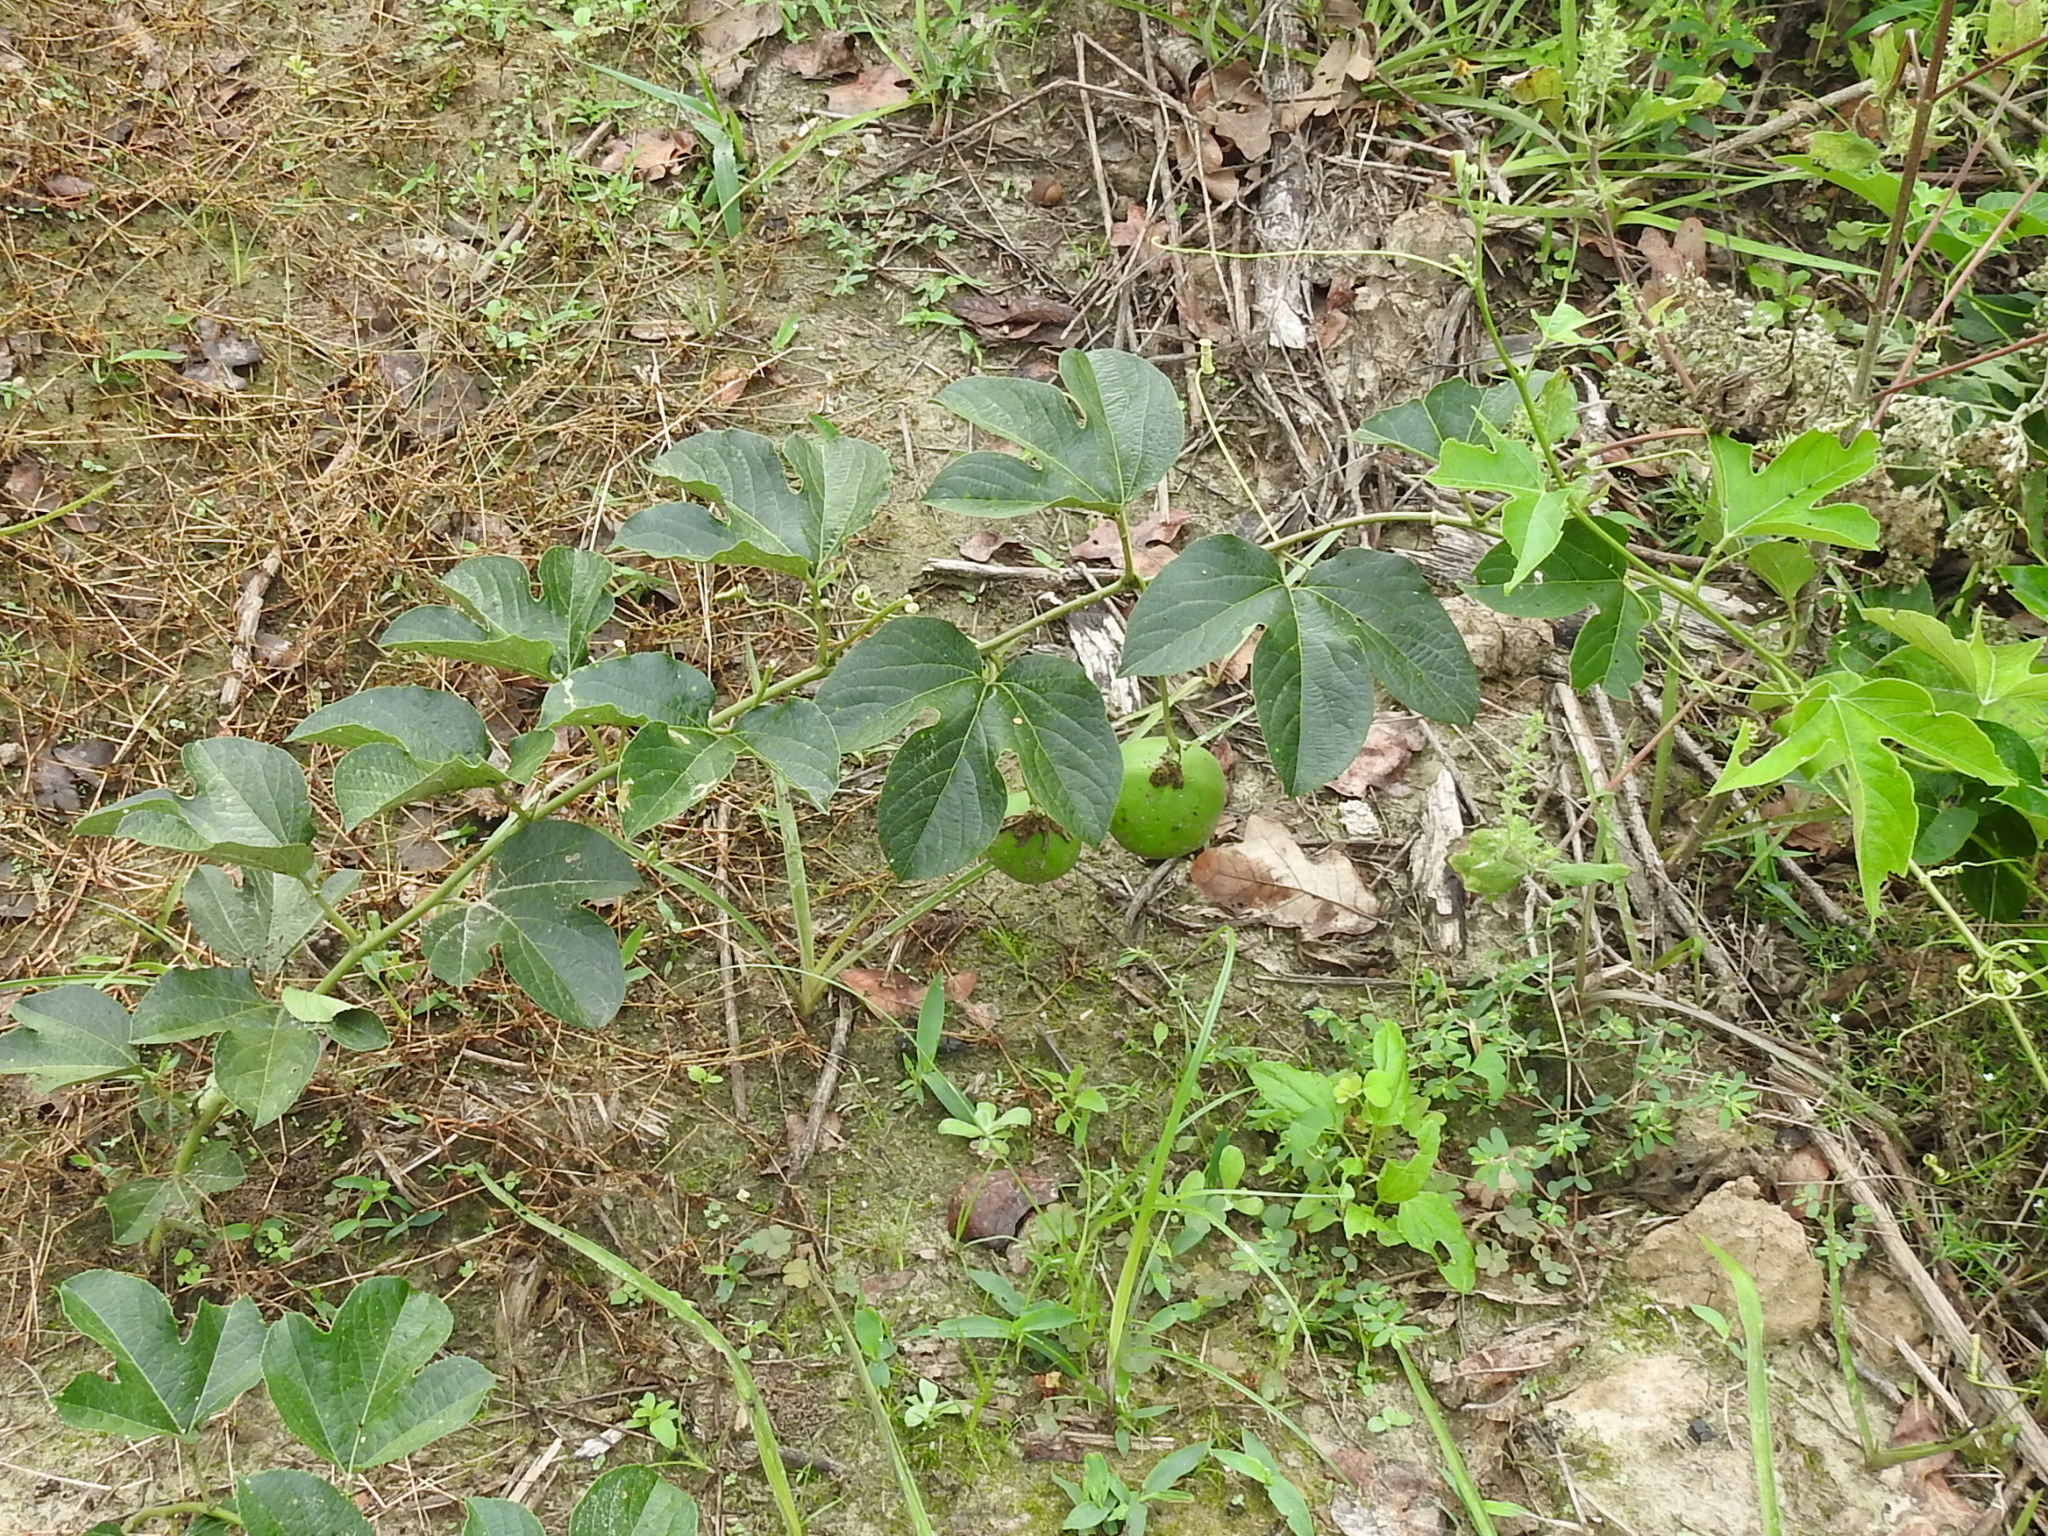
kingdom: Plantae
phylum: Tracheophyta
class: Magnoliopsida
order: Malpighiales
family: Passifloraceae
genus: Passiflora
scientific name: Passiflora incarnata
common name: Apricot-vine
